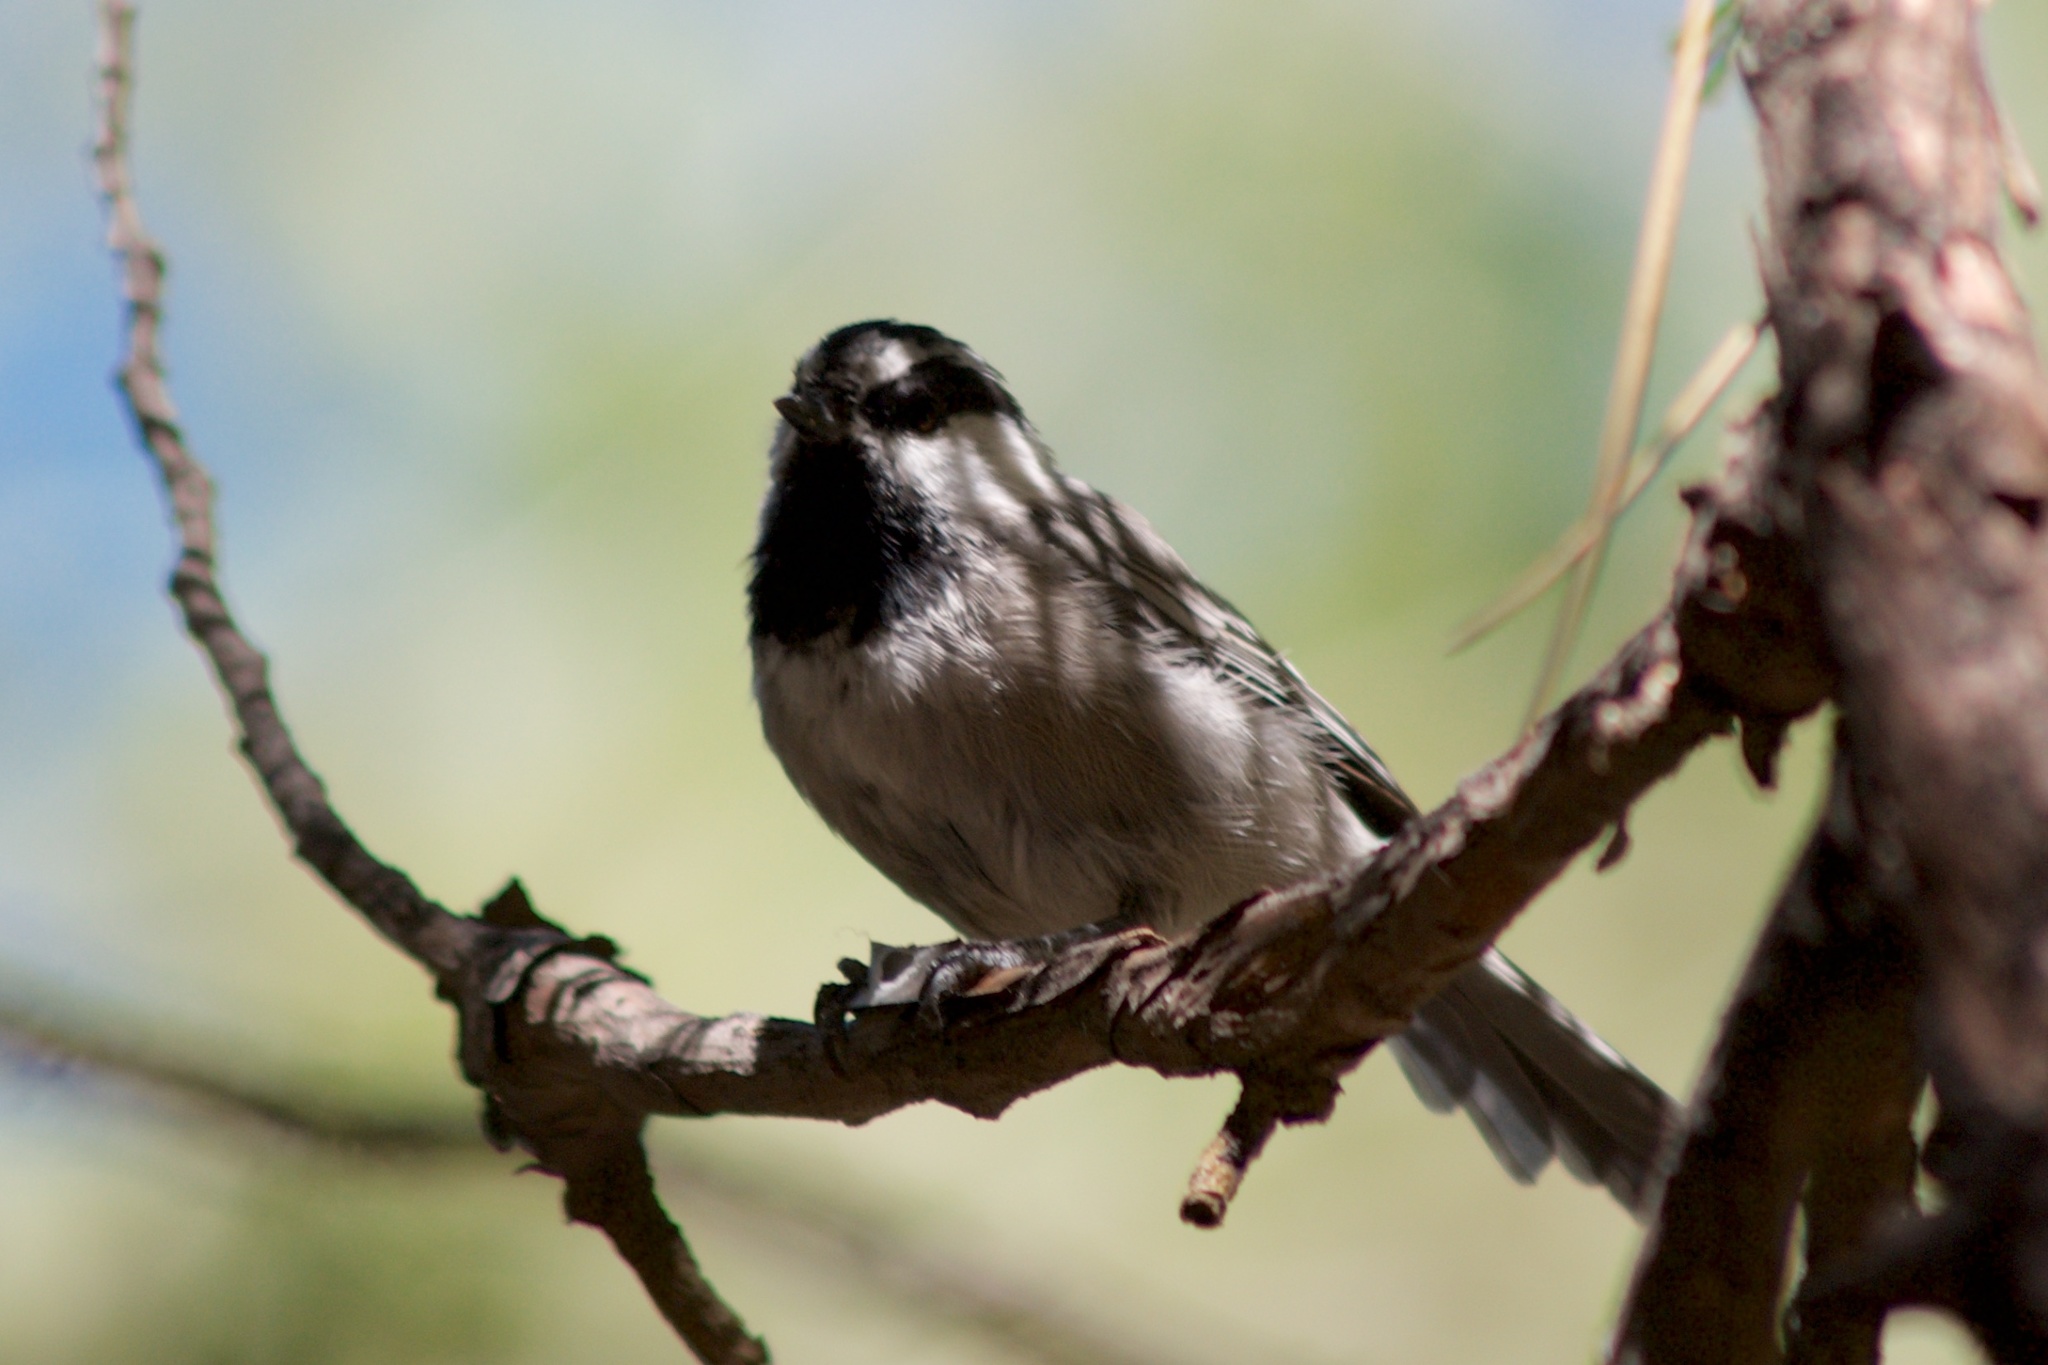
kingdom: Animalia
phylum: Chordata
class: Aves
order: Passeriformes
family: Paridae
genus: Poecile
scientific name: Poecile gambeli
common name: Mountain chickadee
